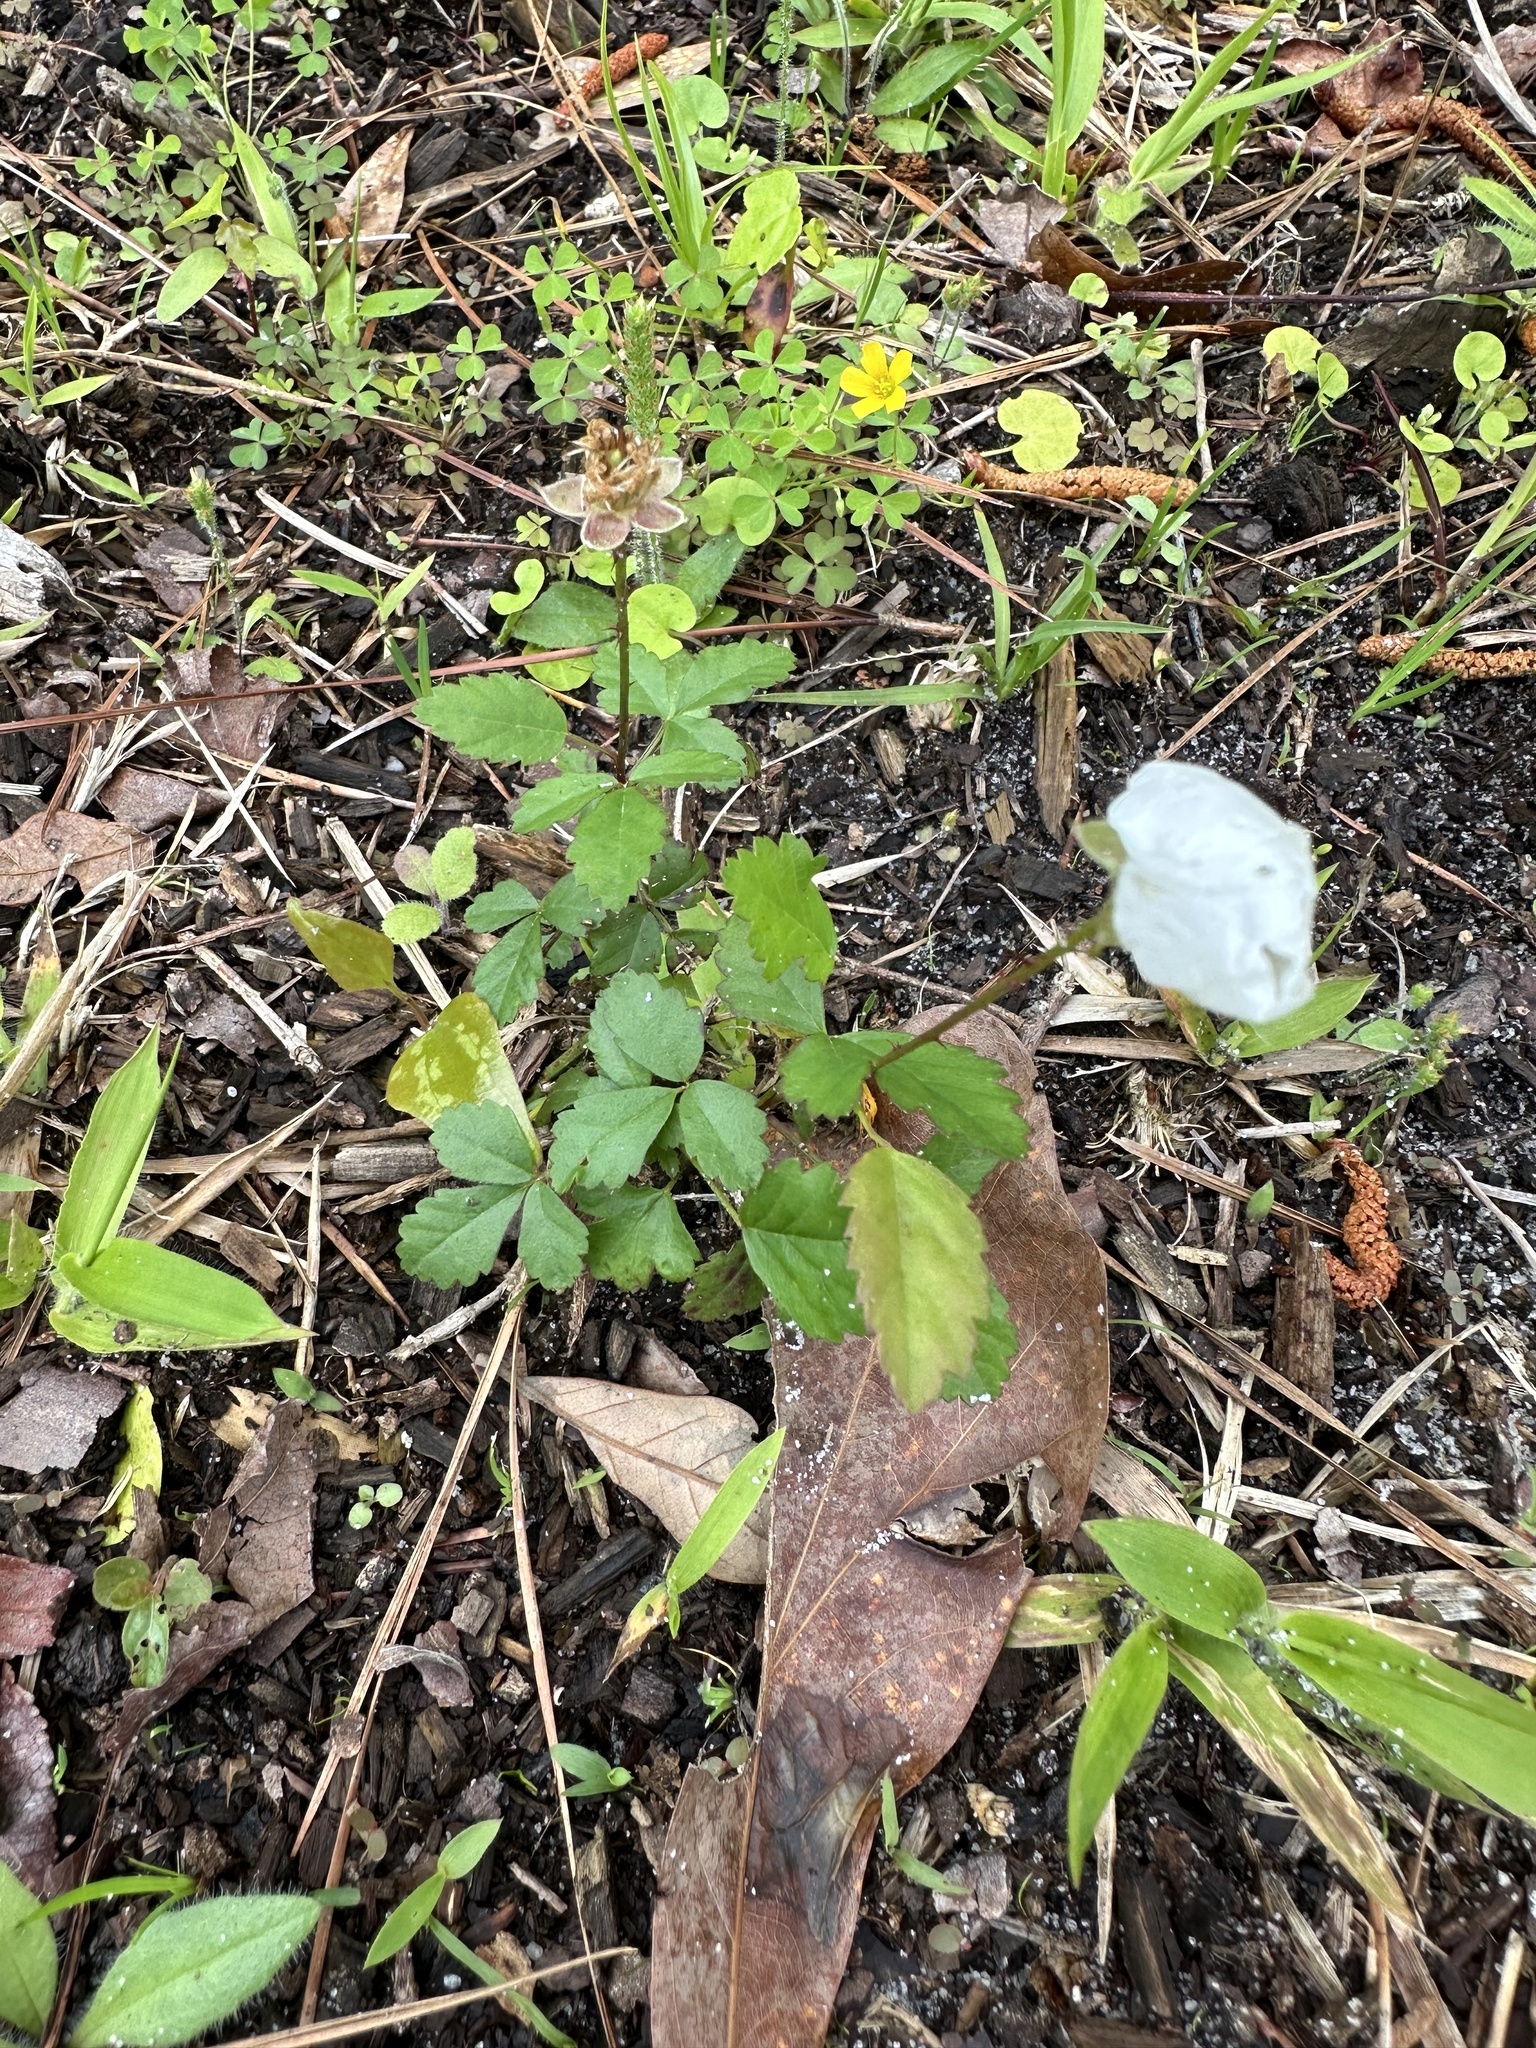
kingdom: Plantae
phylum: Tracheophyta
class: Magnoliopsida
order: Rosales
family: Rosaceae
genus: Rubus
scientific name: Rubus trivialis
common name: Southern dewberry
